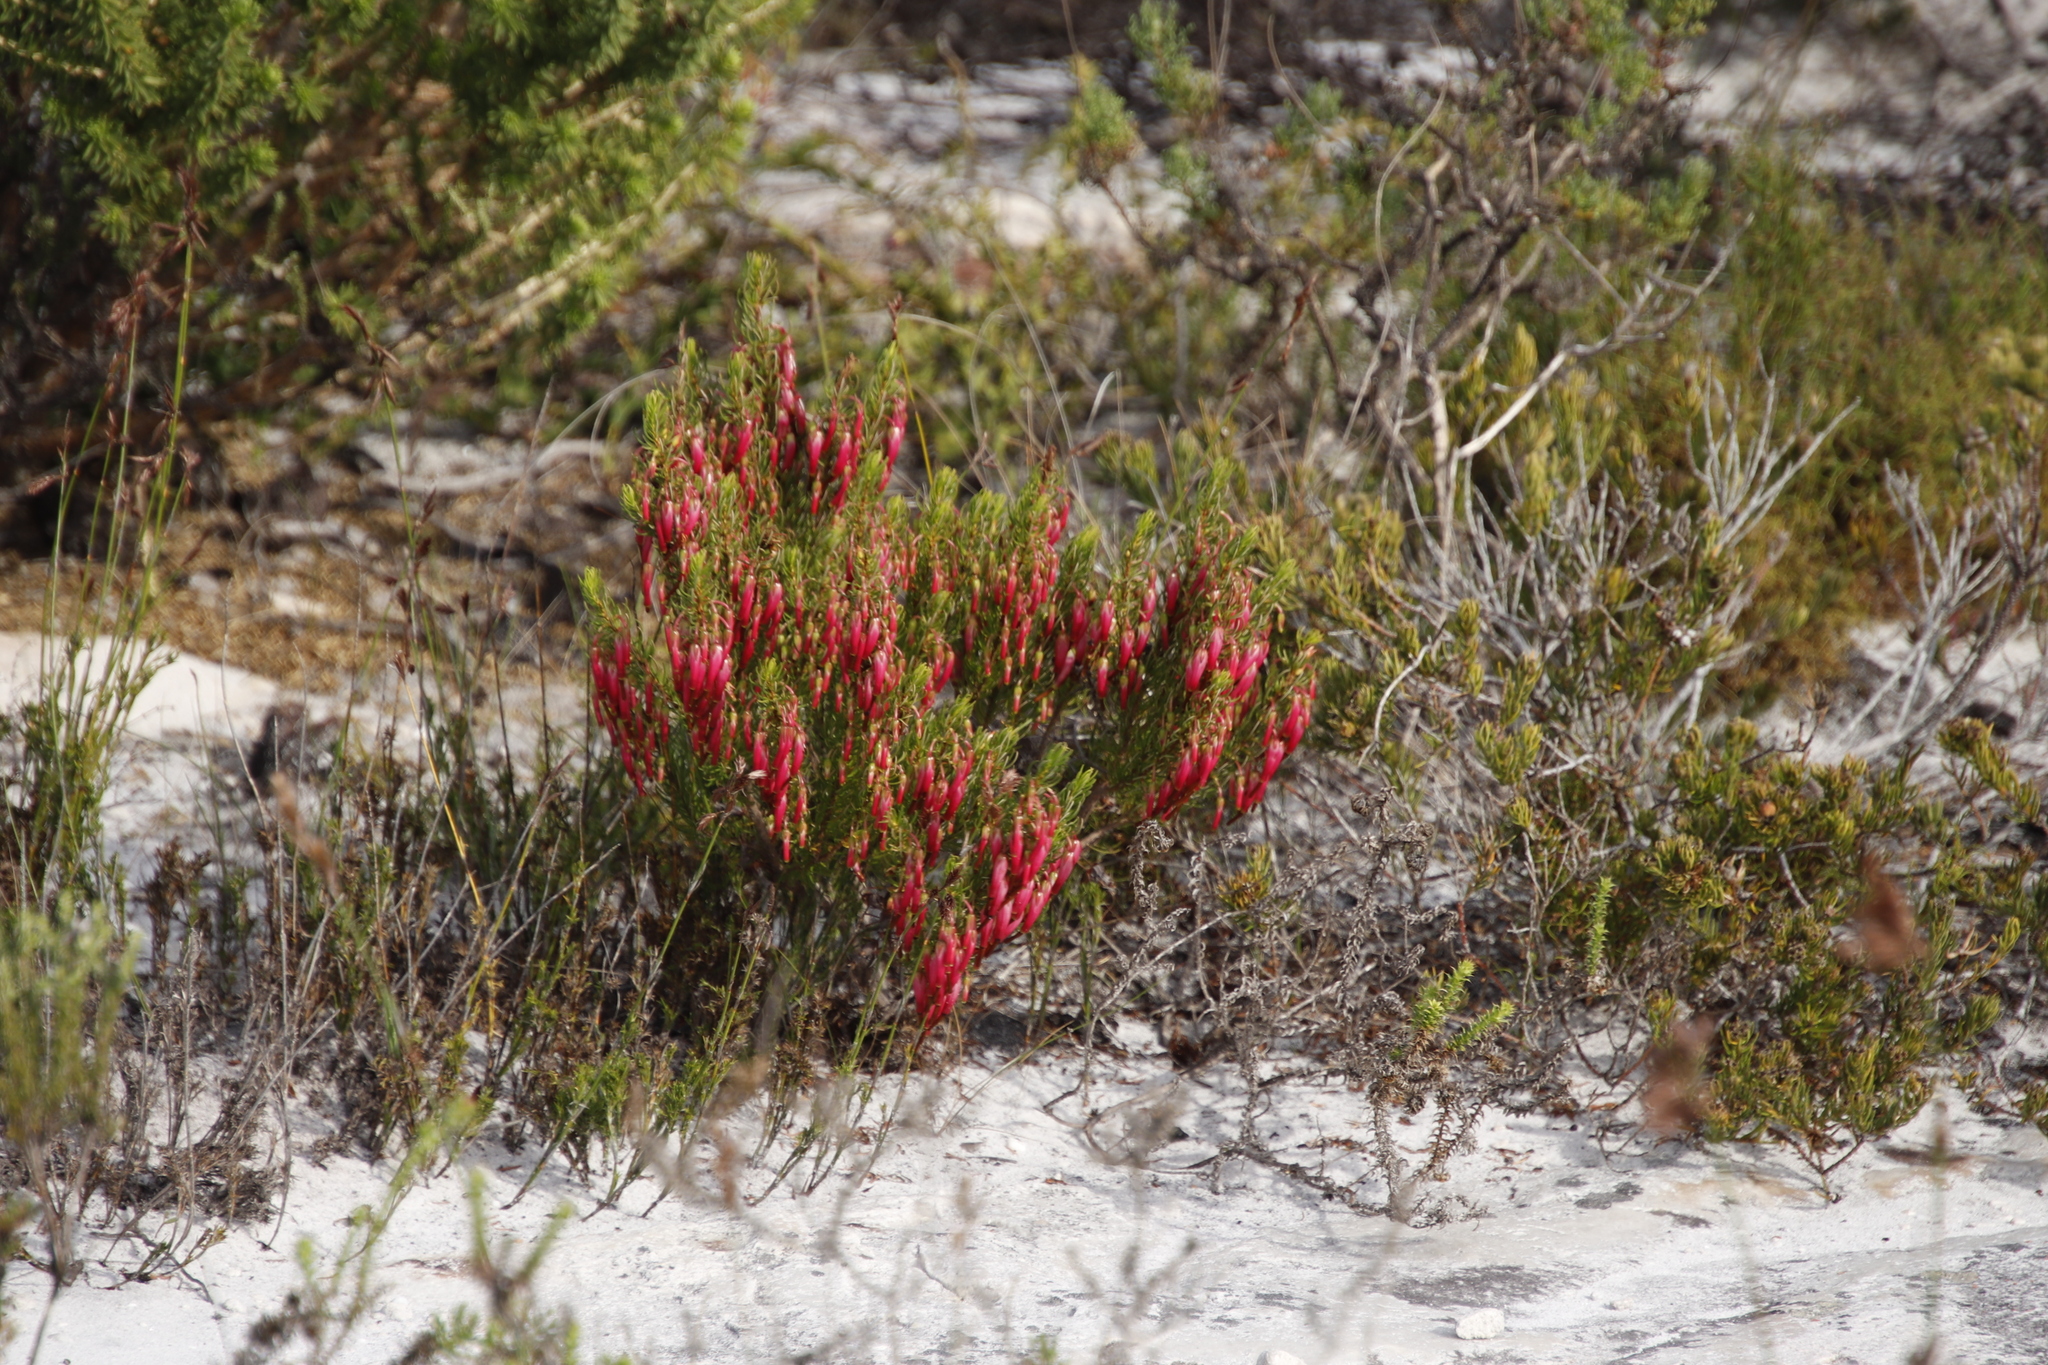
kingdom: Plantae
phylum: Tracheophyta
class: Magnoliopsida
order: Ericales
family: Ericaceae
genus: Erica
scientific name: Erica plukenetii
